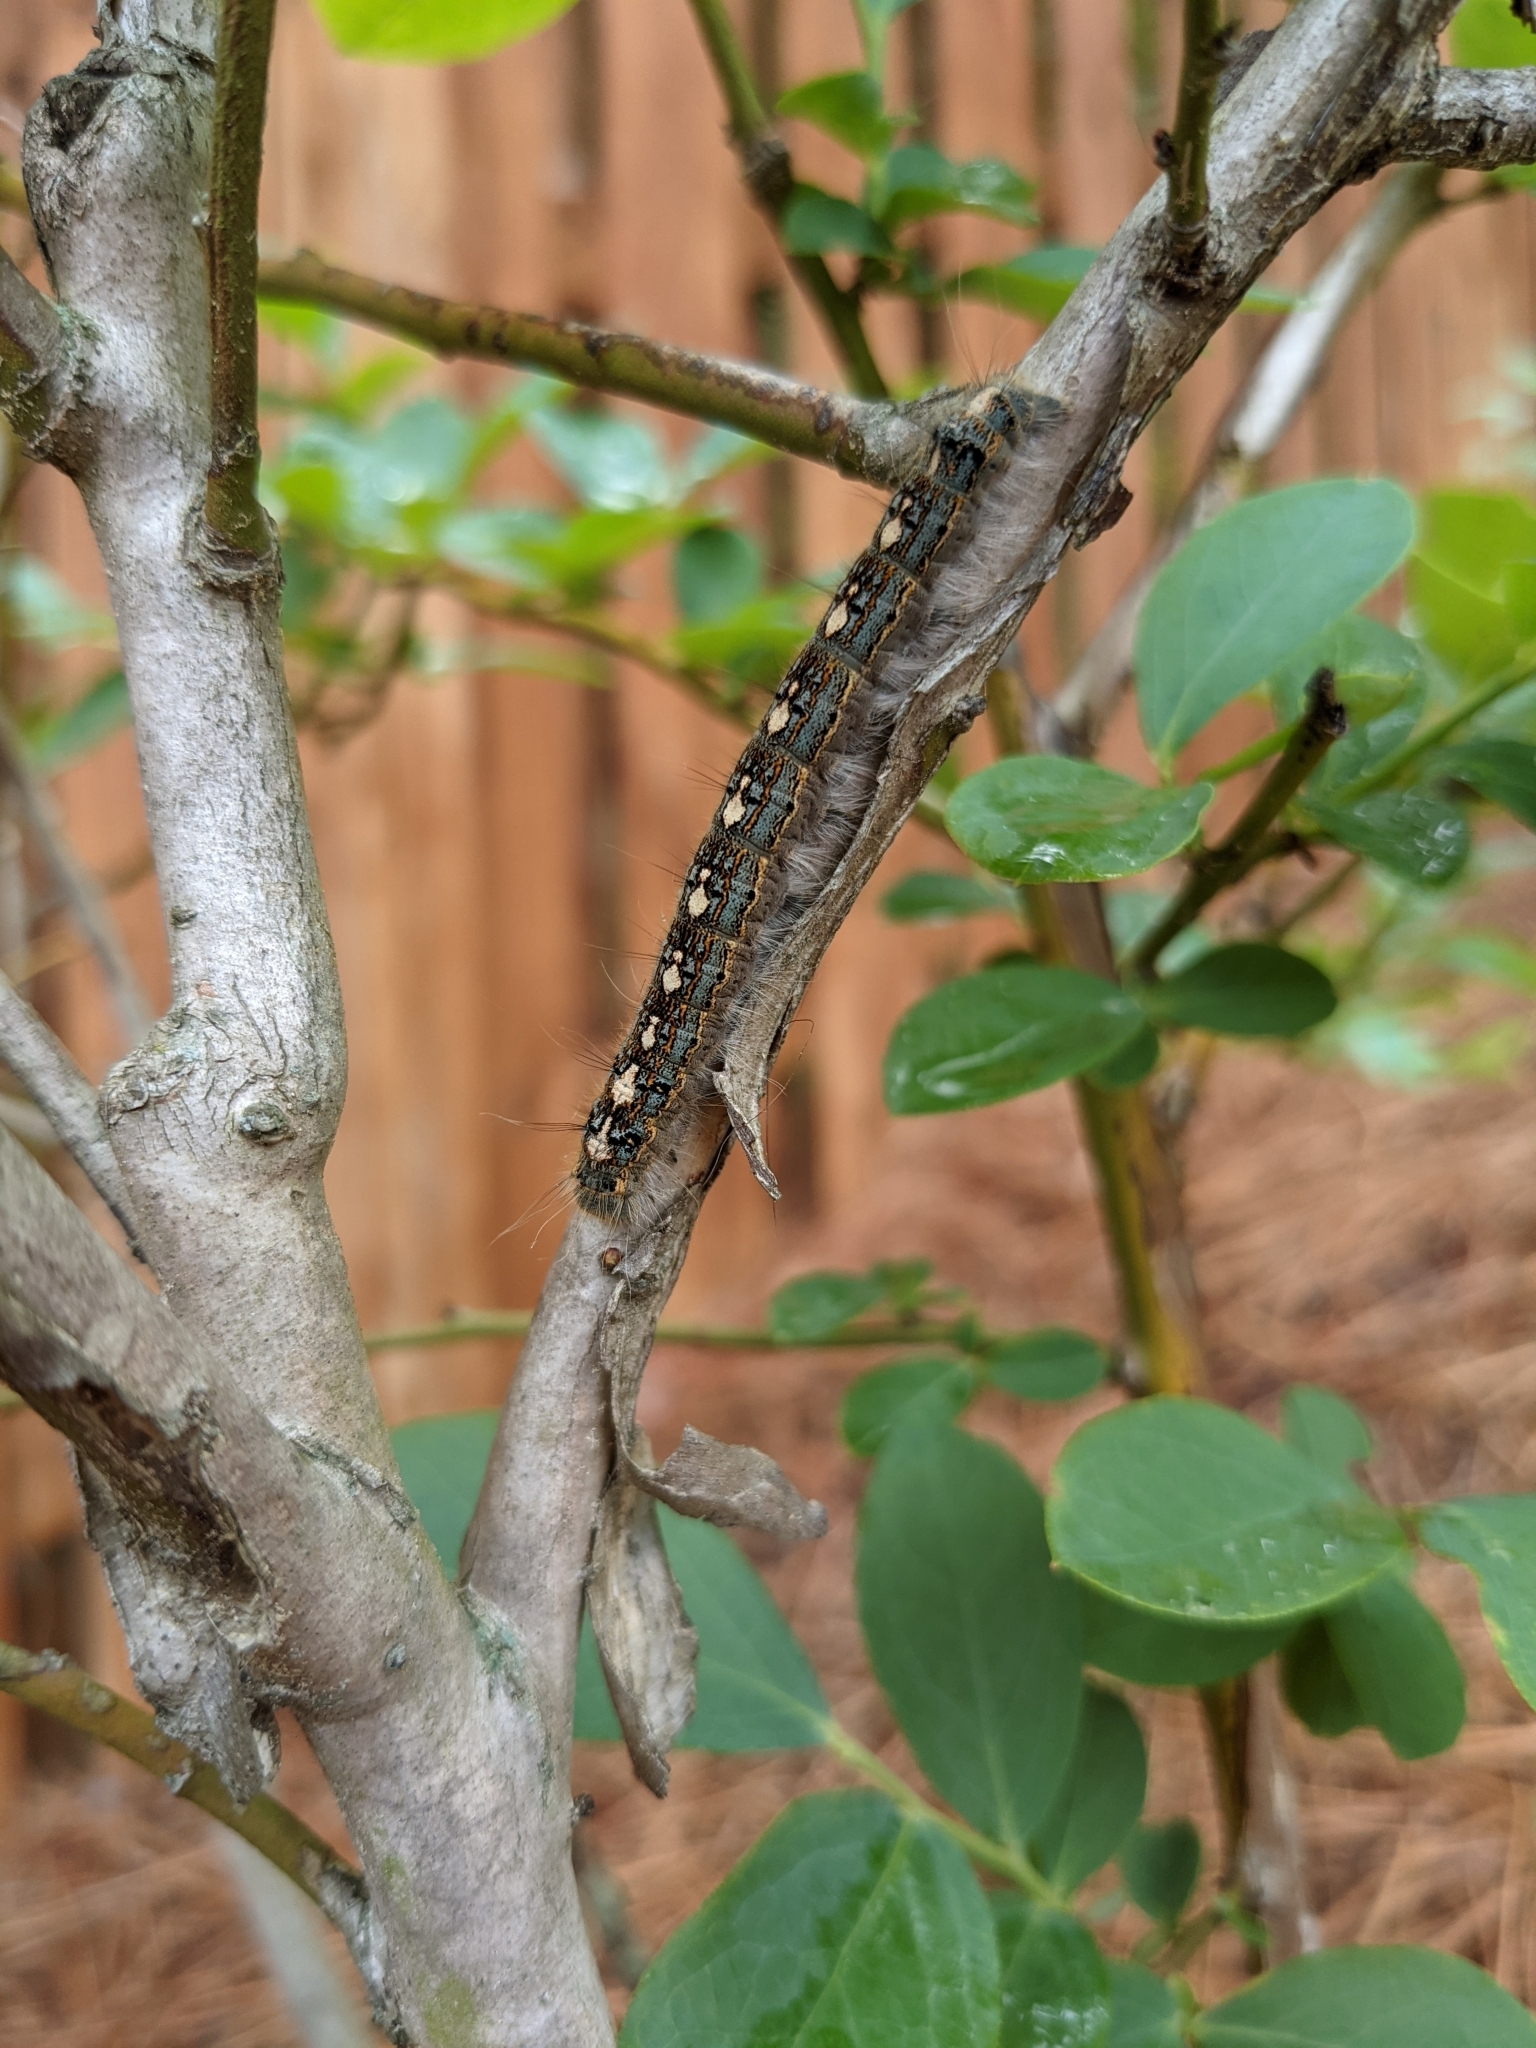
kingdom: Animalia
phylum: Arthropoda
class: Insecta
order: Lepidoptera
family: Lasiocampidae
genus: Malacosoma
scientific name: Malacosoma disstria
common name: Forest tent caterpillar
